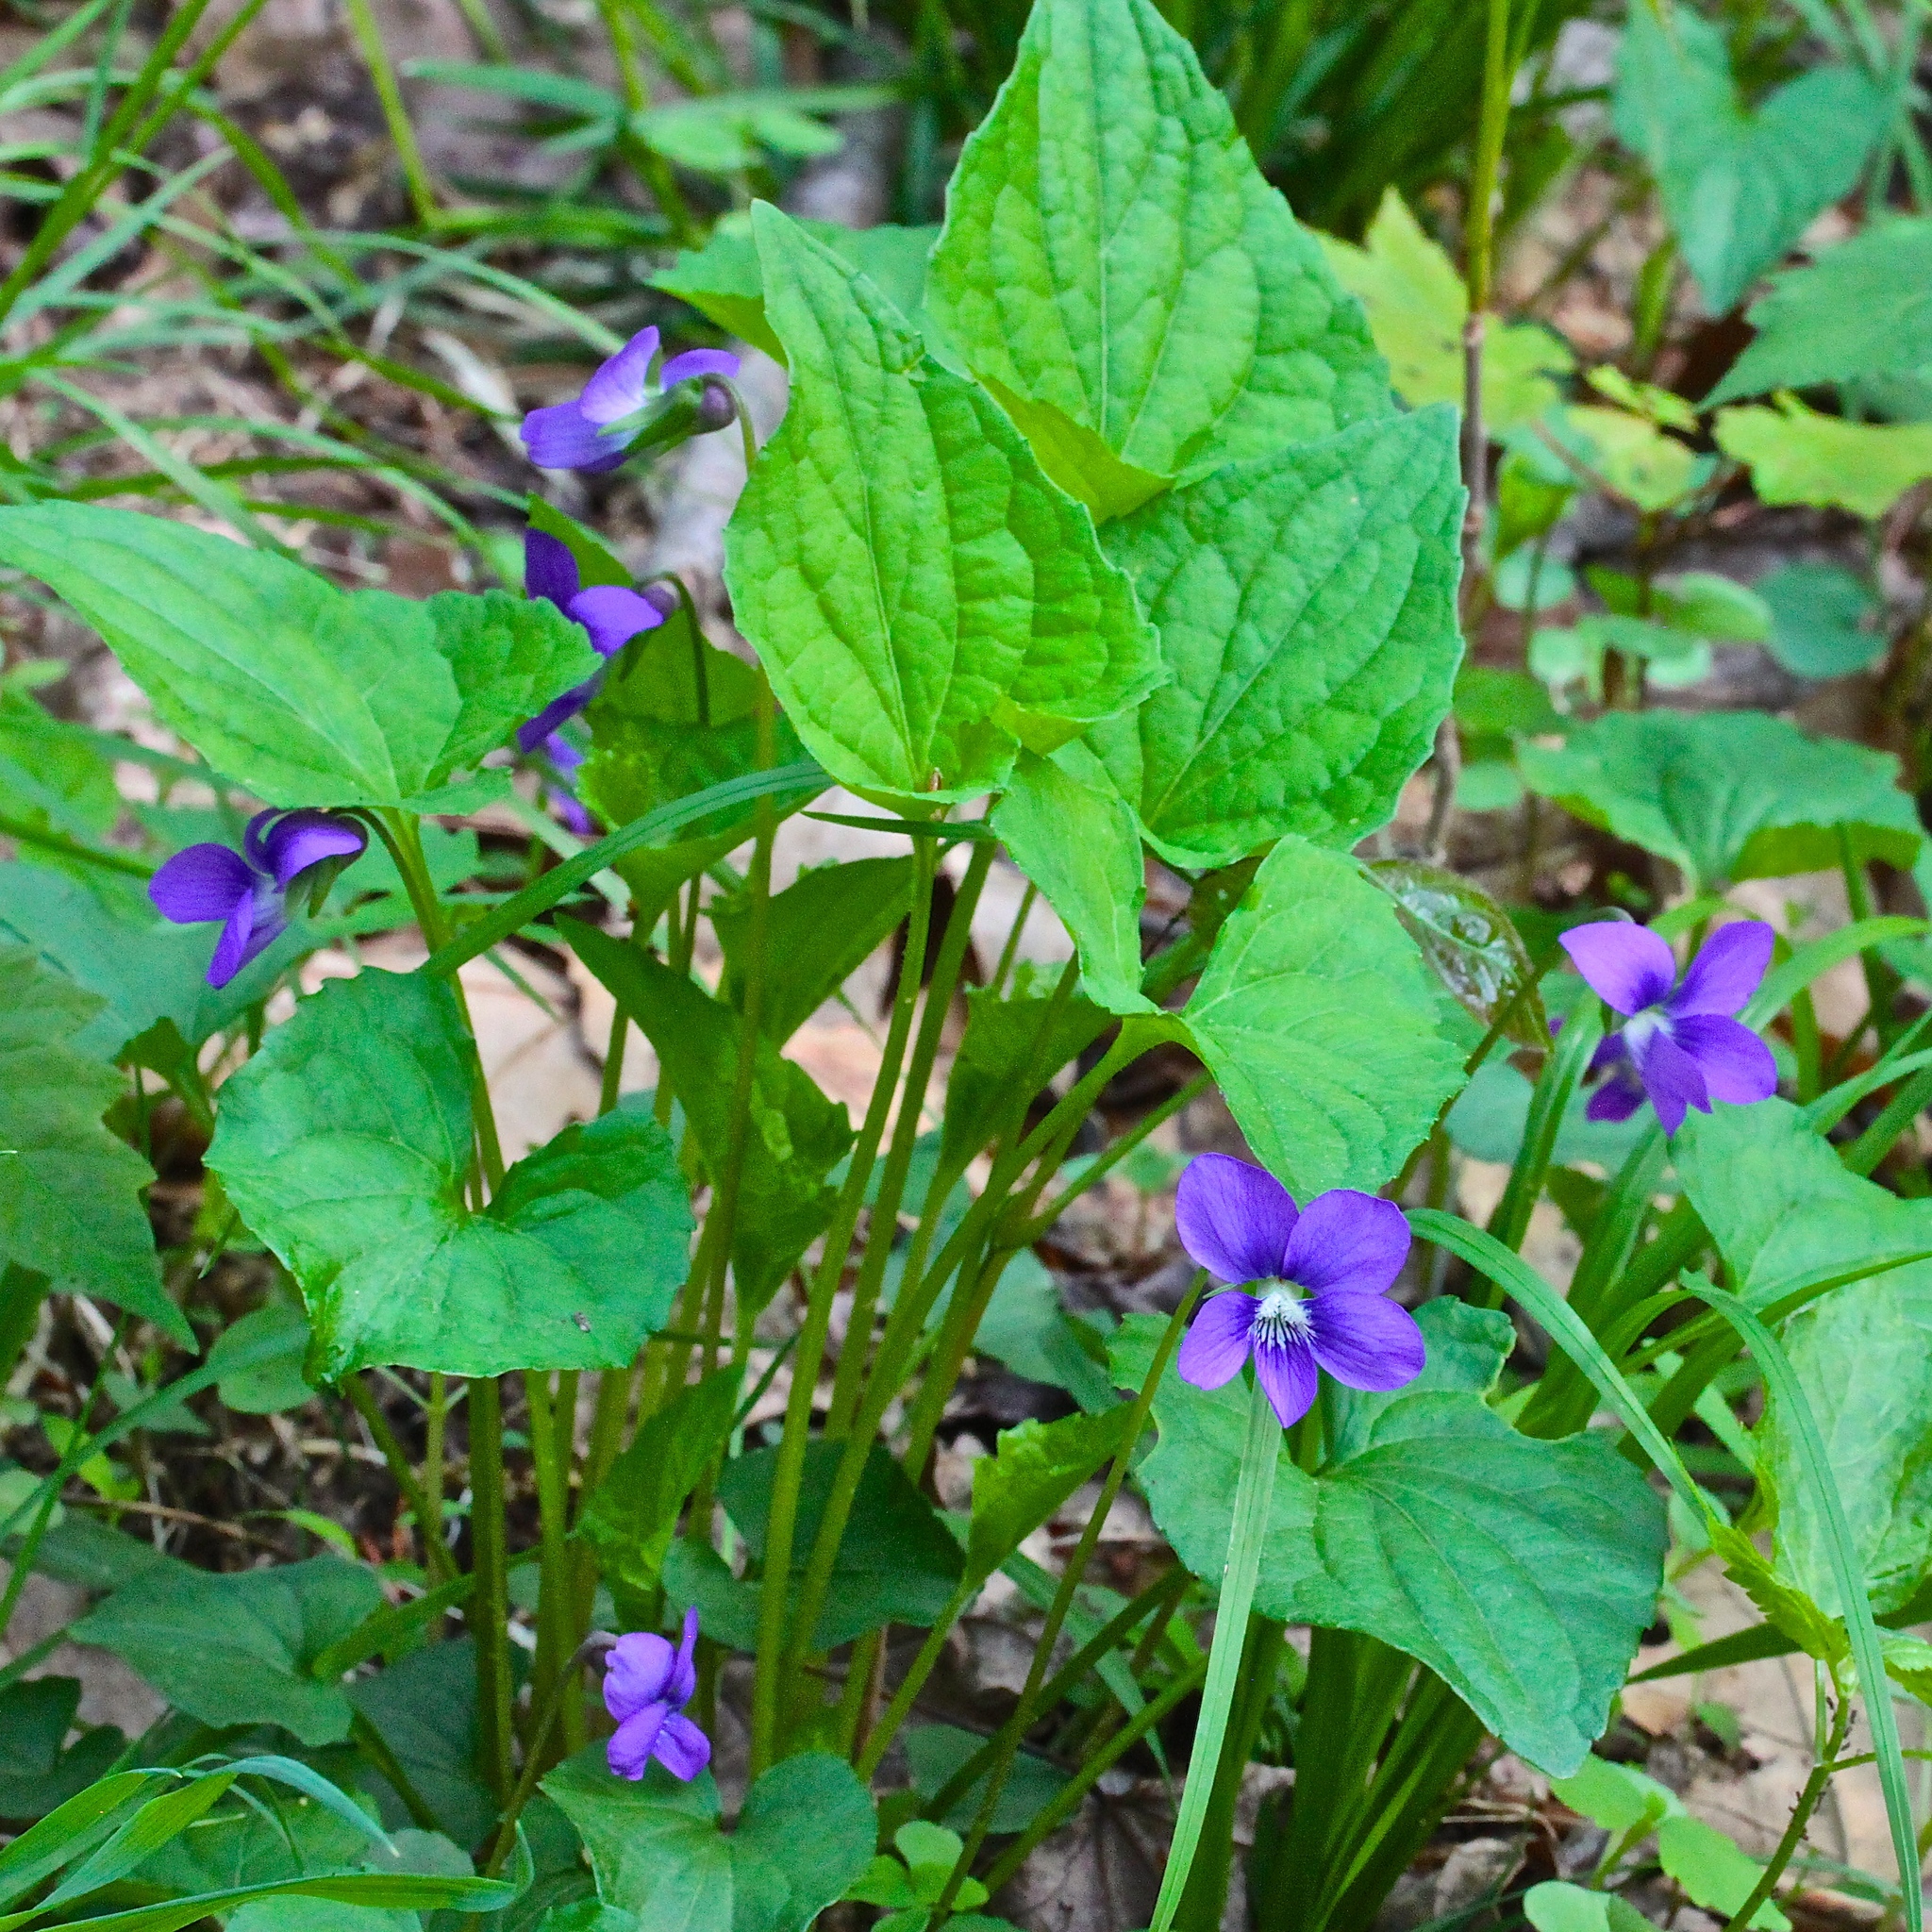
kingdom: Plantae
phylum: Tracheophyta
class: Magnoliopsida
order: Malpighiales
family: Violaceae
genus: Viola
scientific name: Viola sororia
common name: Dooryard violet
